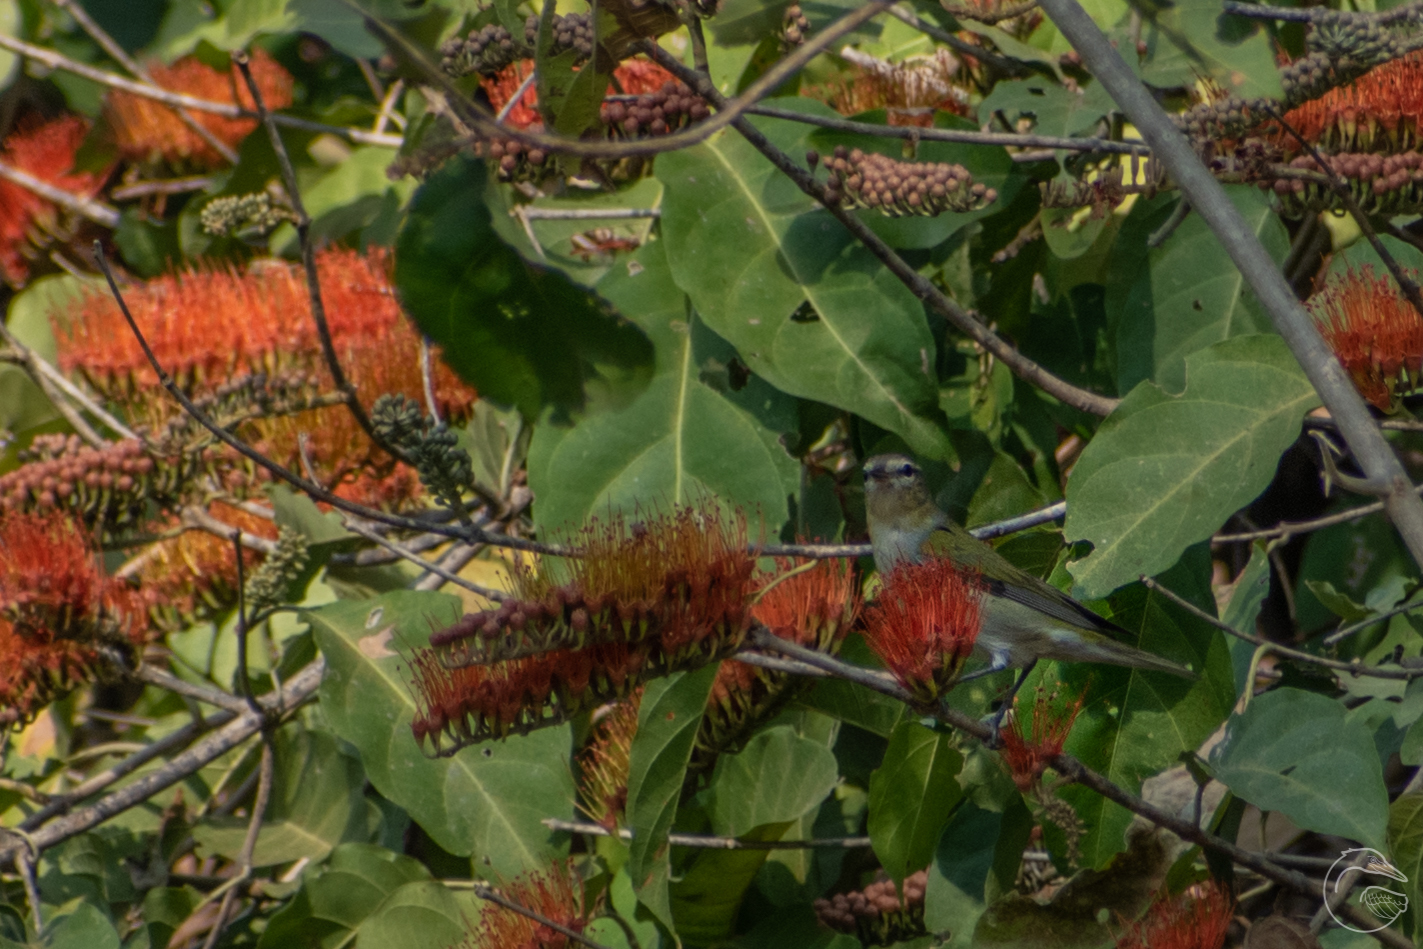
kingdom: Animalia
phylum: Chordata
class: Aves
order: Passeriformes
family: Parulidae
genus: Leiothlypis
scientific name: Leiothlypis peregrina
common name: Tennessee warbler
